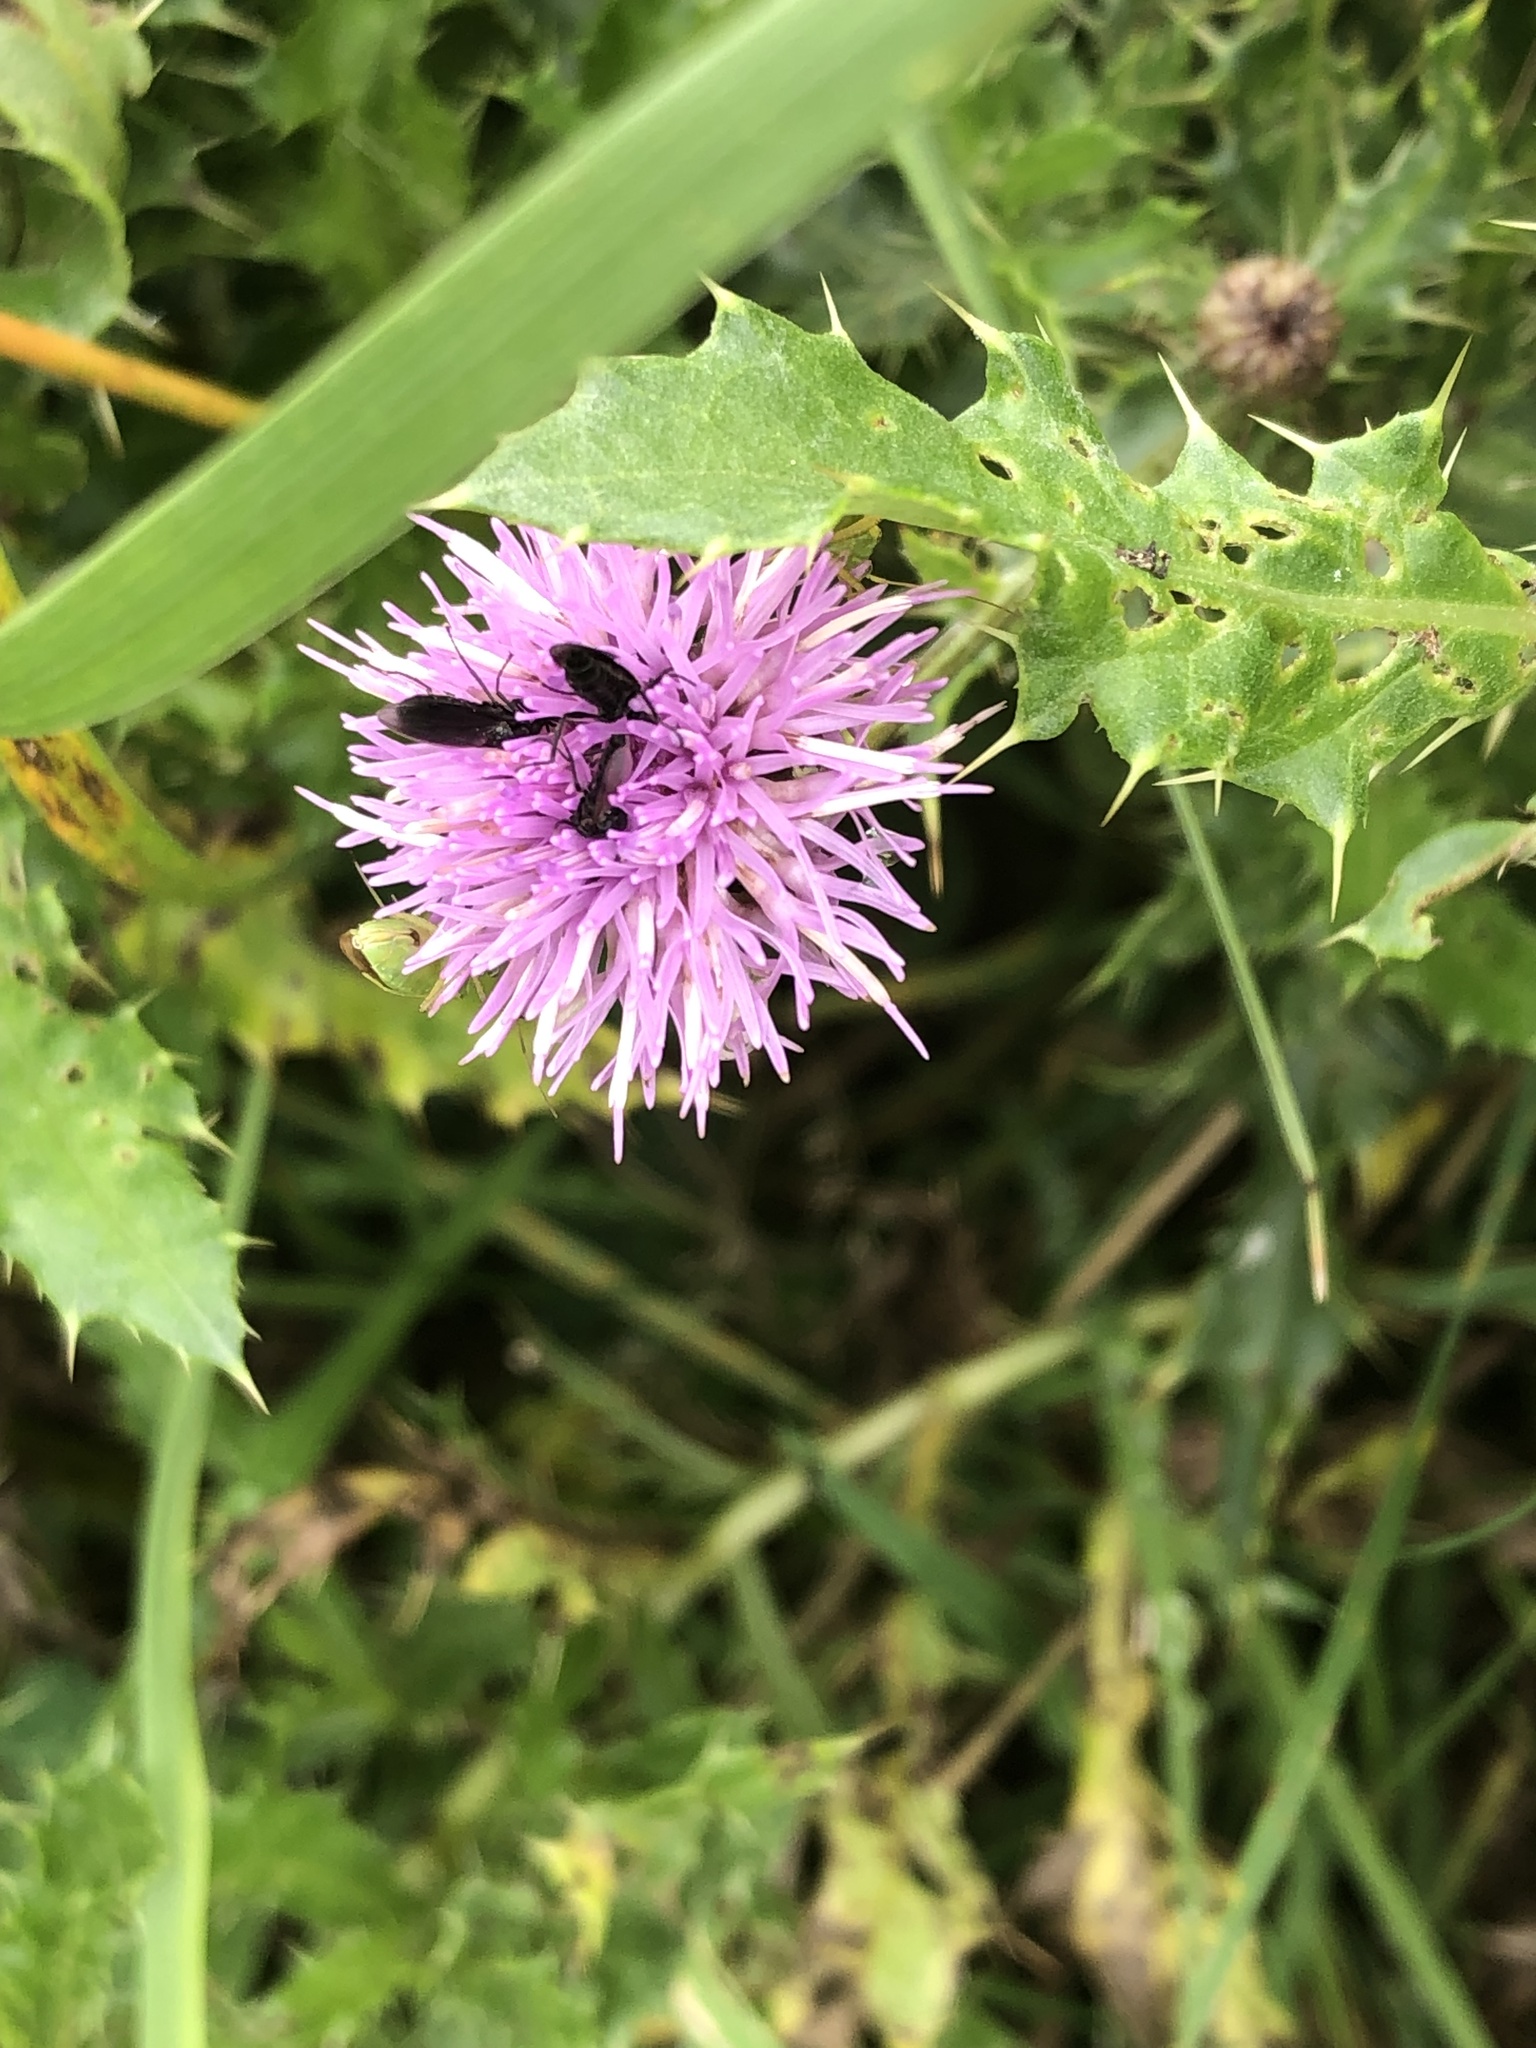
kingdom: Plantae
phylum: Tracheophyta
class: Magnoliopsida
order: Asterales
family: Asteraceae
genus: Cirsium
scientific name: Cirsium arvense
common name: Creeping thistle
